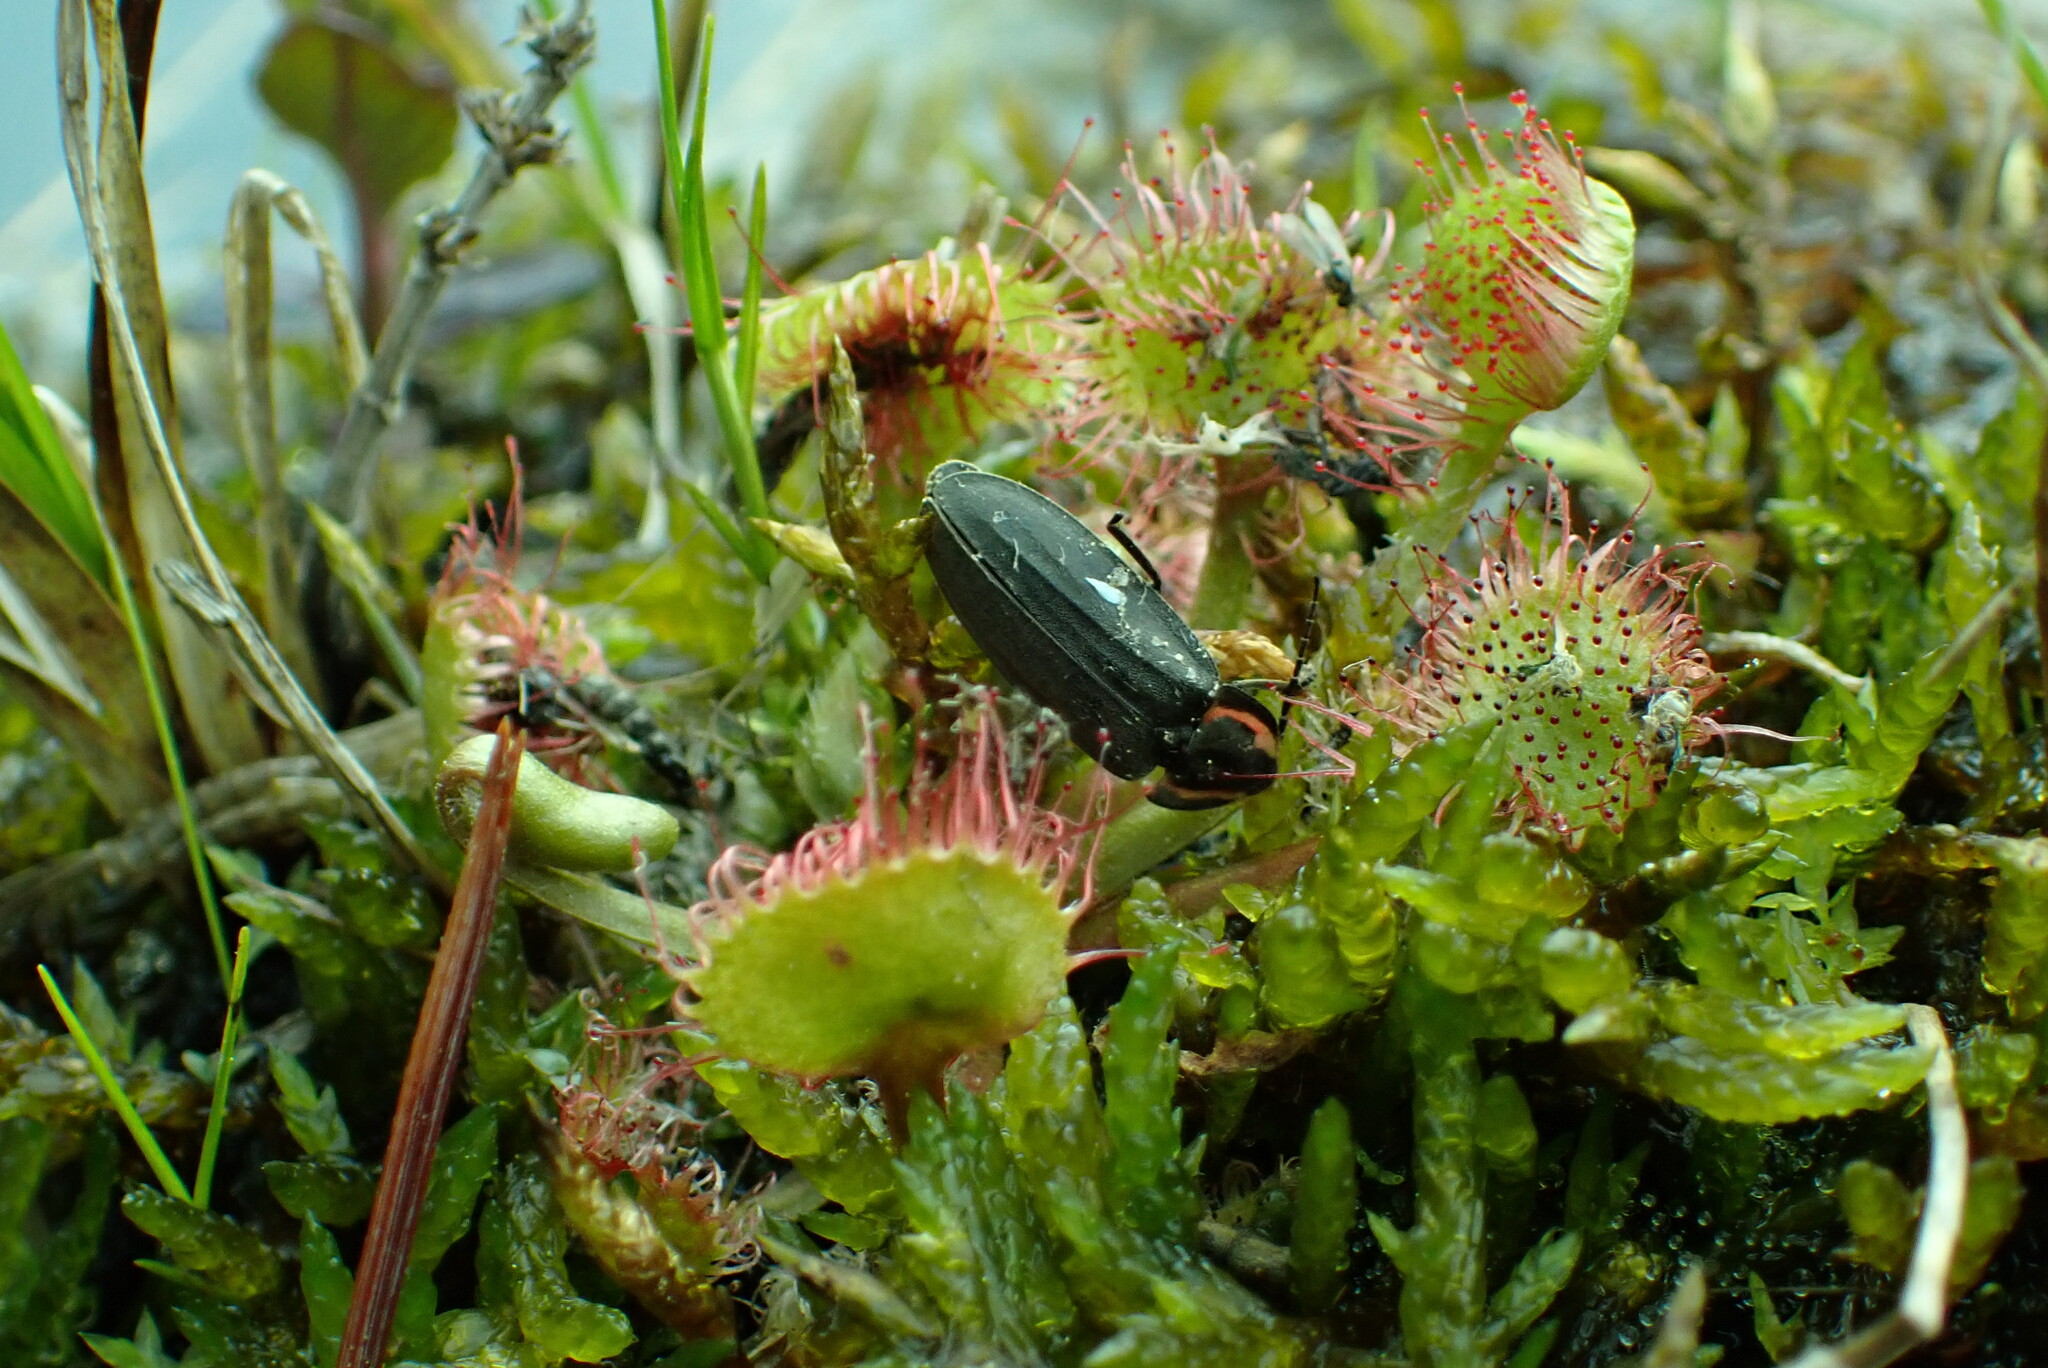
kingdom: Plantae
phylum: Tracheophyta
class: Magnoliopsida
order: Caryophyllales
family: Droseraceae
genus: Drosera
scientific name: Drosera rotundifolia
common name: Round-leaved sundew
